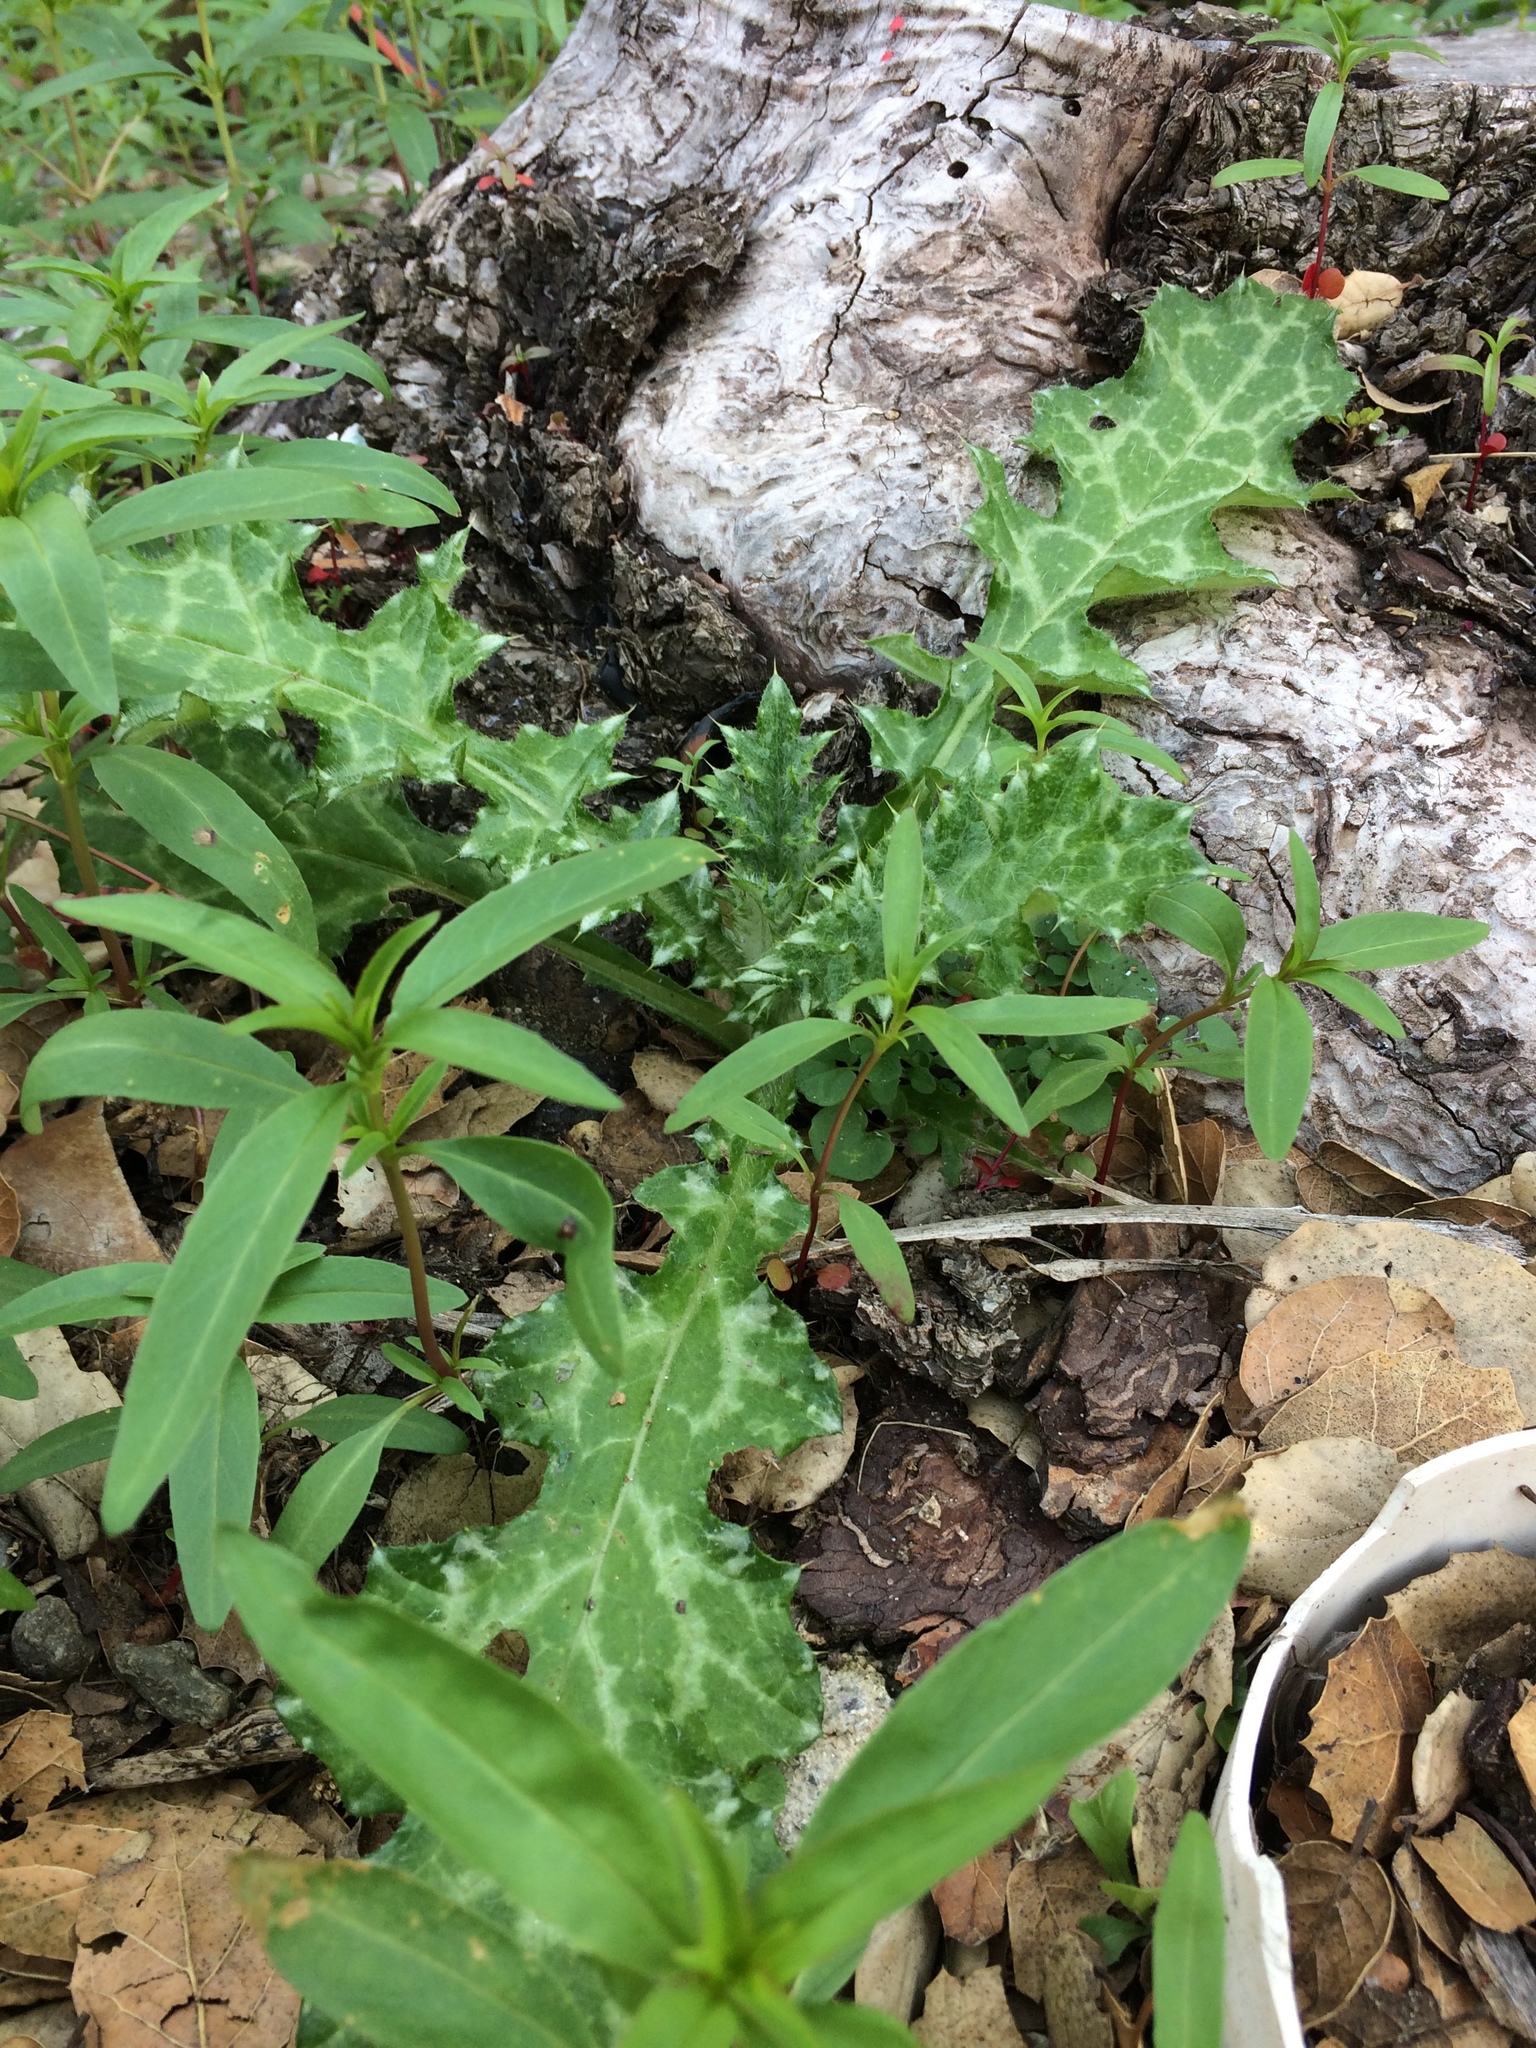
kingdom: Plantae
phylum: Tracheophyta
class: Magnoliopsida
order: Asterales
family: Asteraceae
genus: Carduus
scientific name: Carduus pycnocephalus
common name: Plymouth thistle
